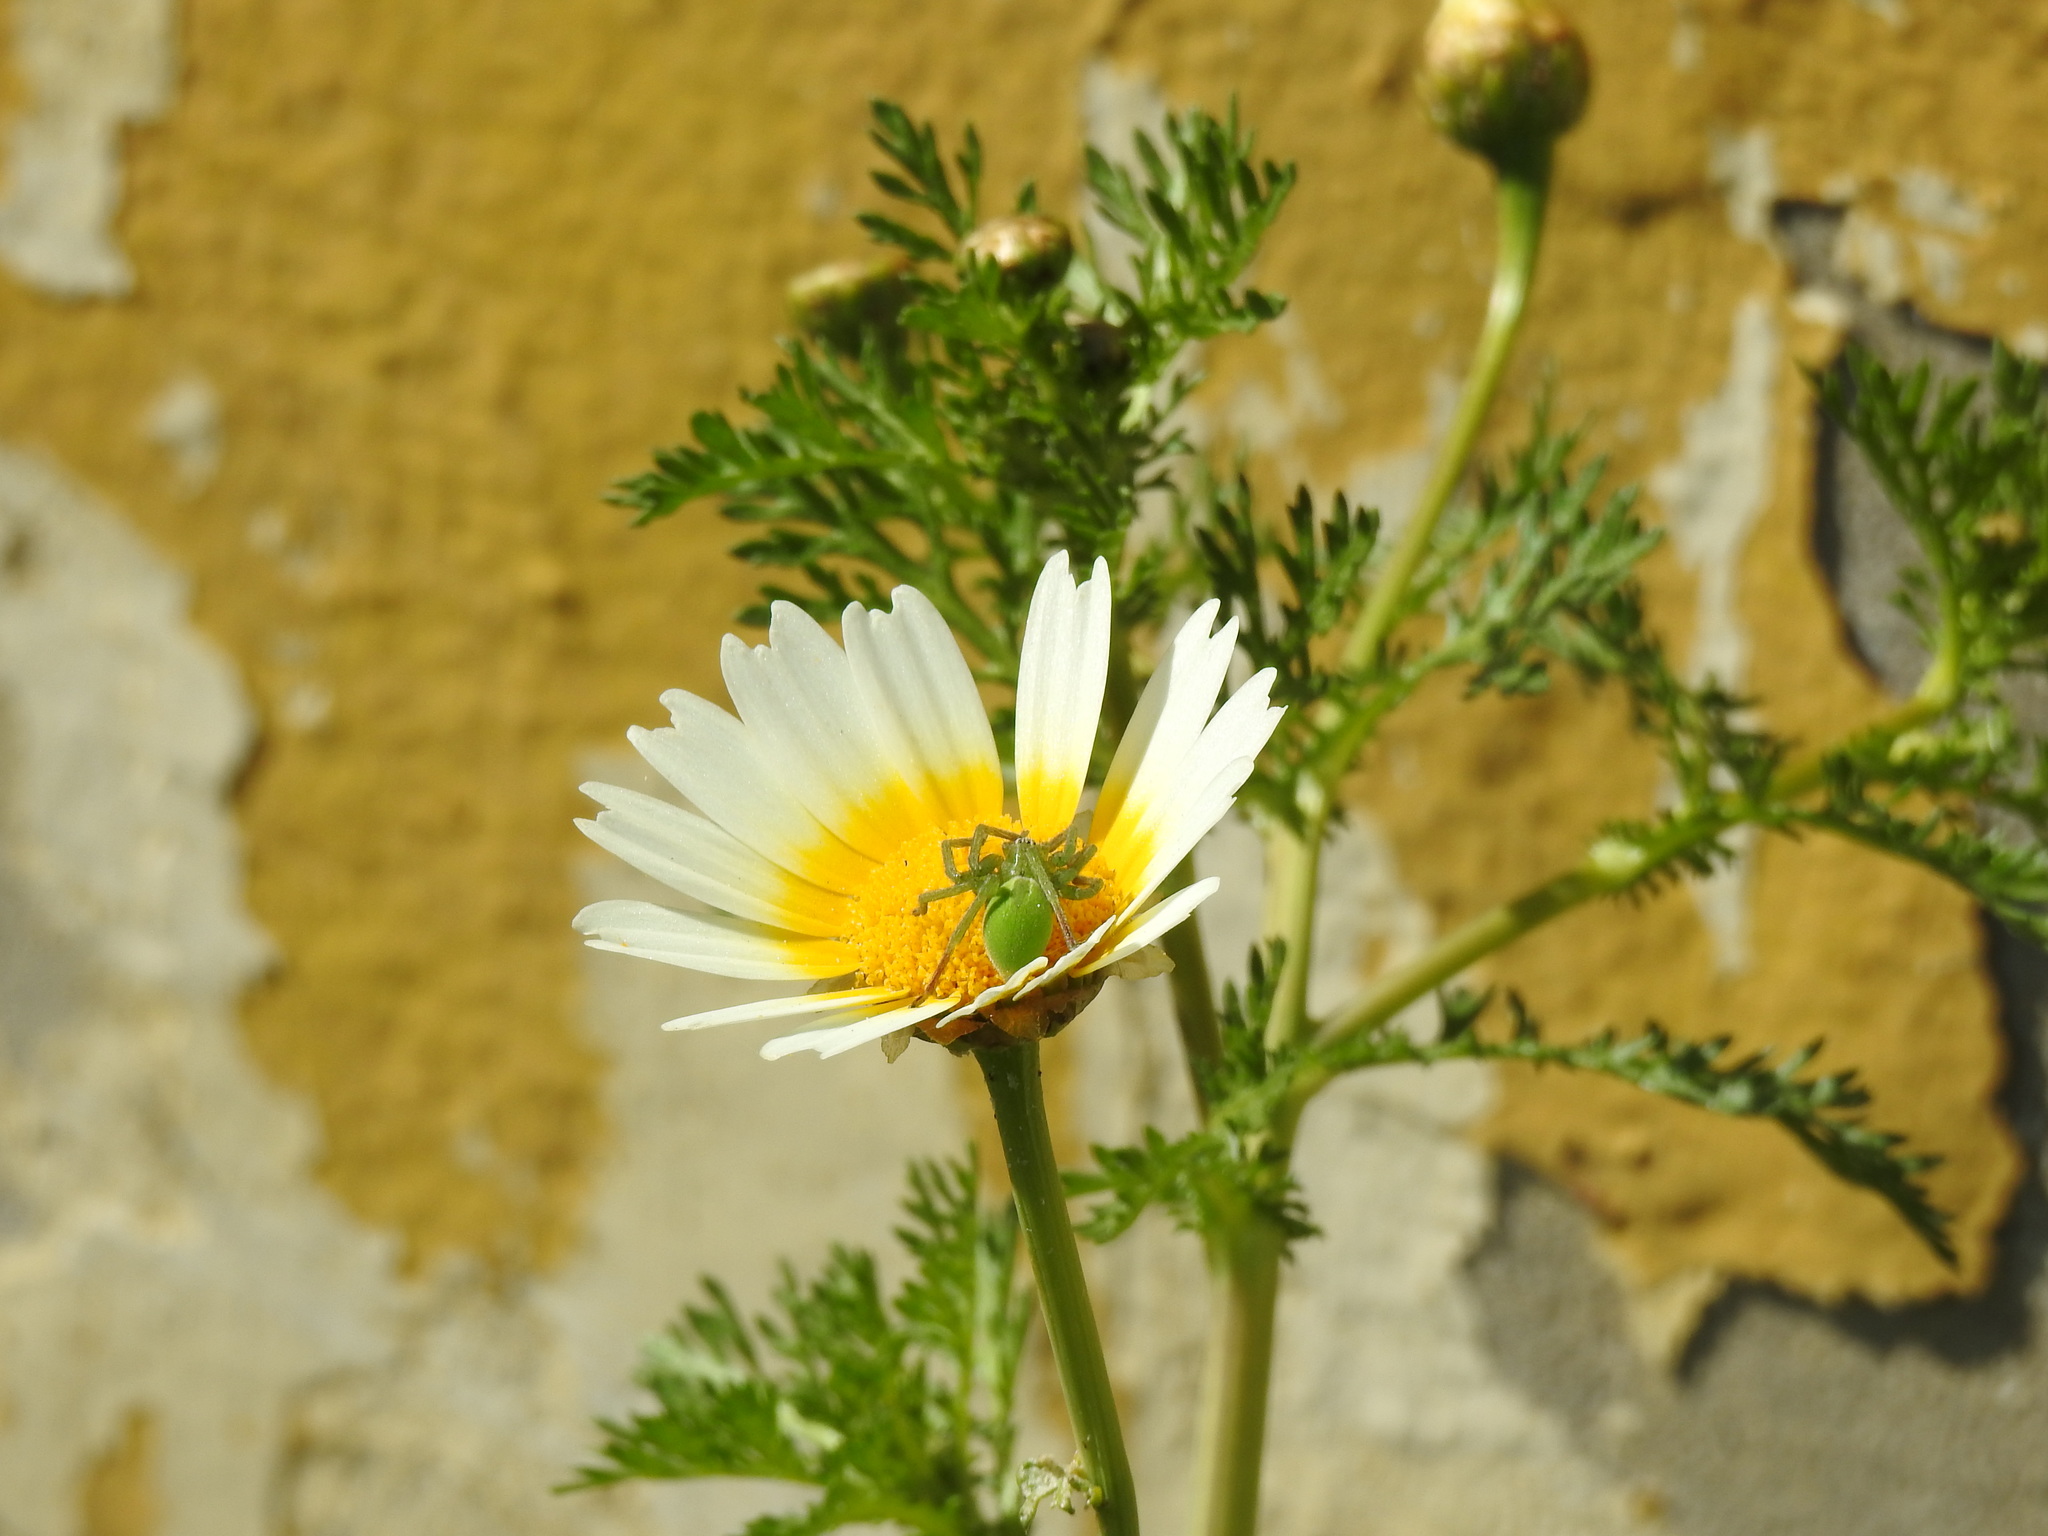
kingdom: Plantae
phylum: Tracheophyta
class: Magnoliopsida
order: Asterales
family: Asteraceae
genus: Glebionis
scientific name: Glebionis coronaria
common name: Crowndaisy
